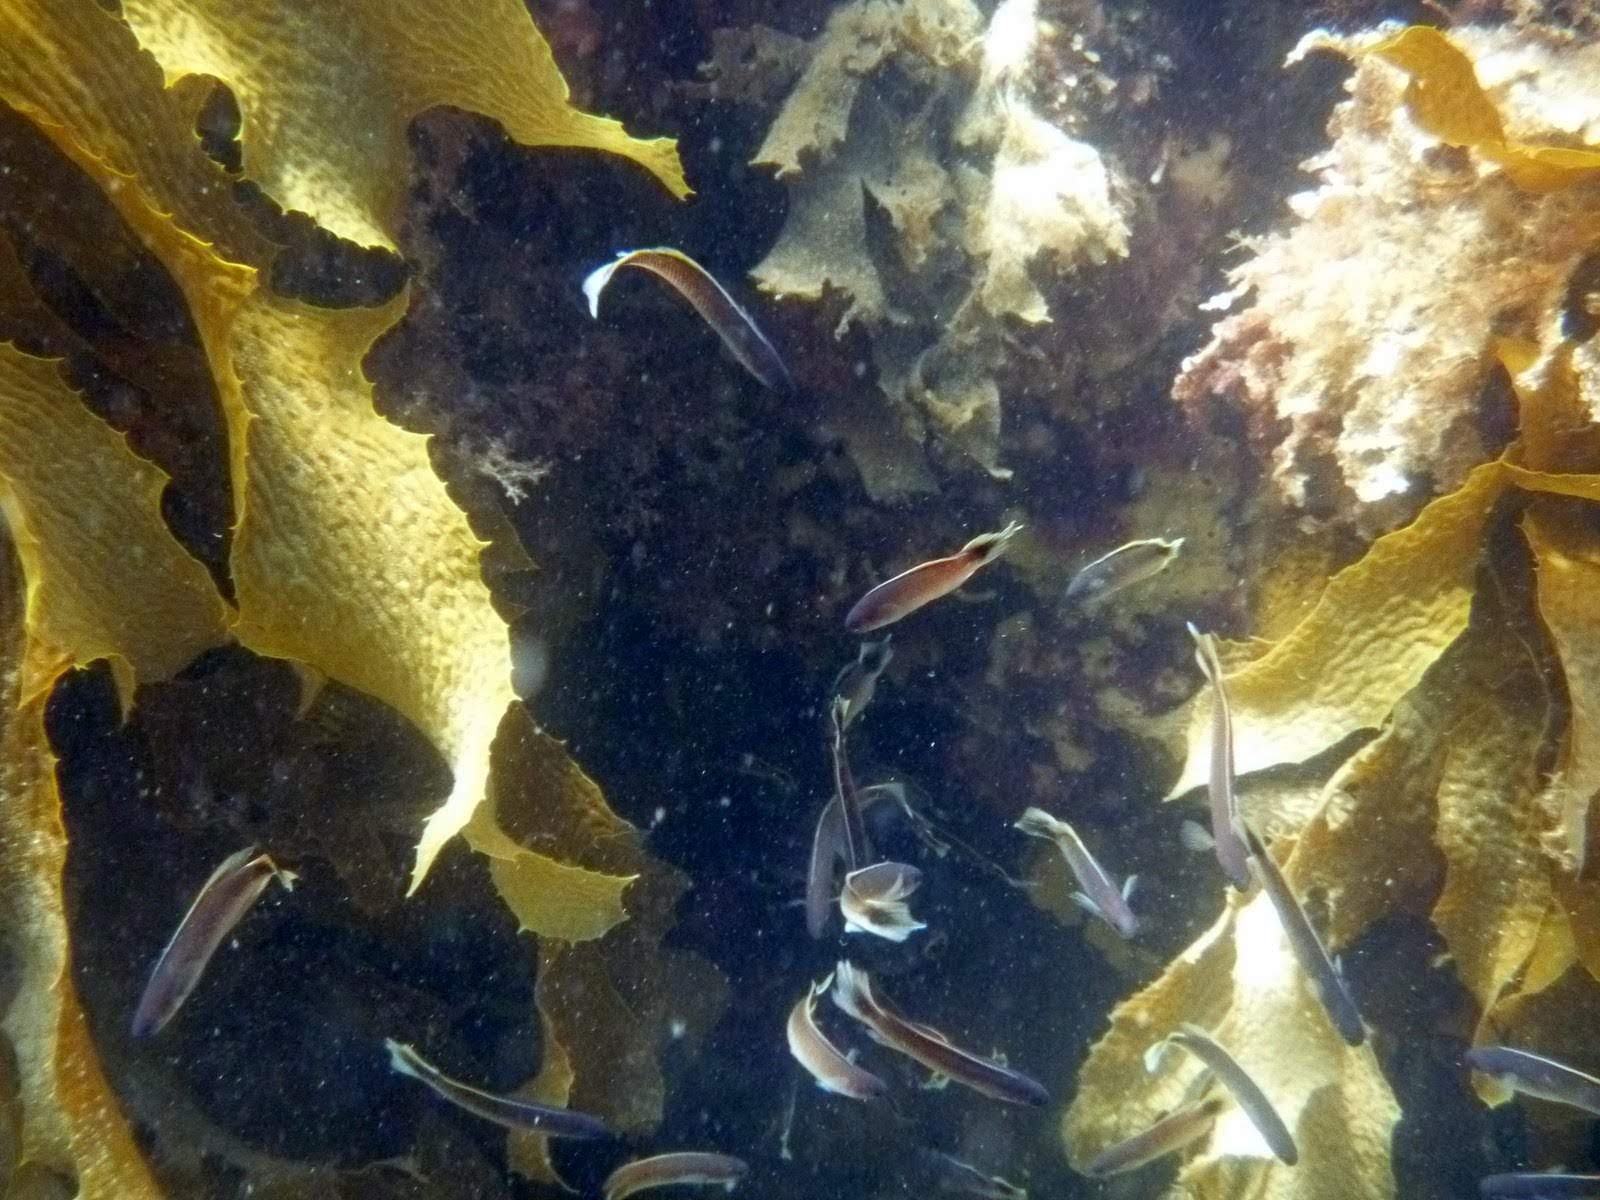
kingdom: Animalia
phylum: Chordata
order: Perciformes
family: Plesiopidae
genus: Trachinops
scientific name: Trachinops caudimaculatus
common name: Blotched-tailed trachinops
